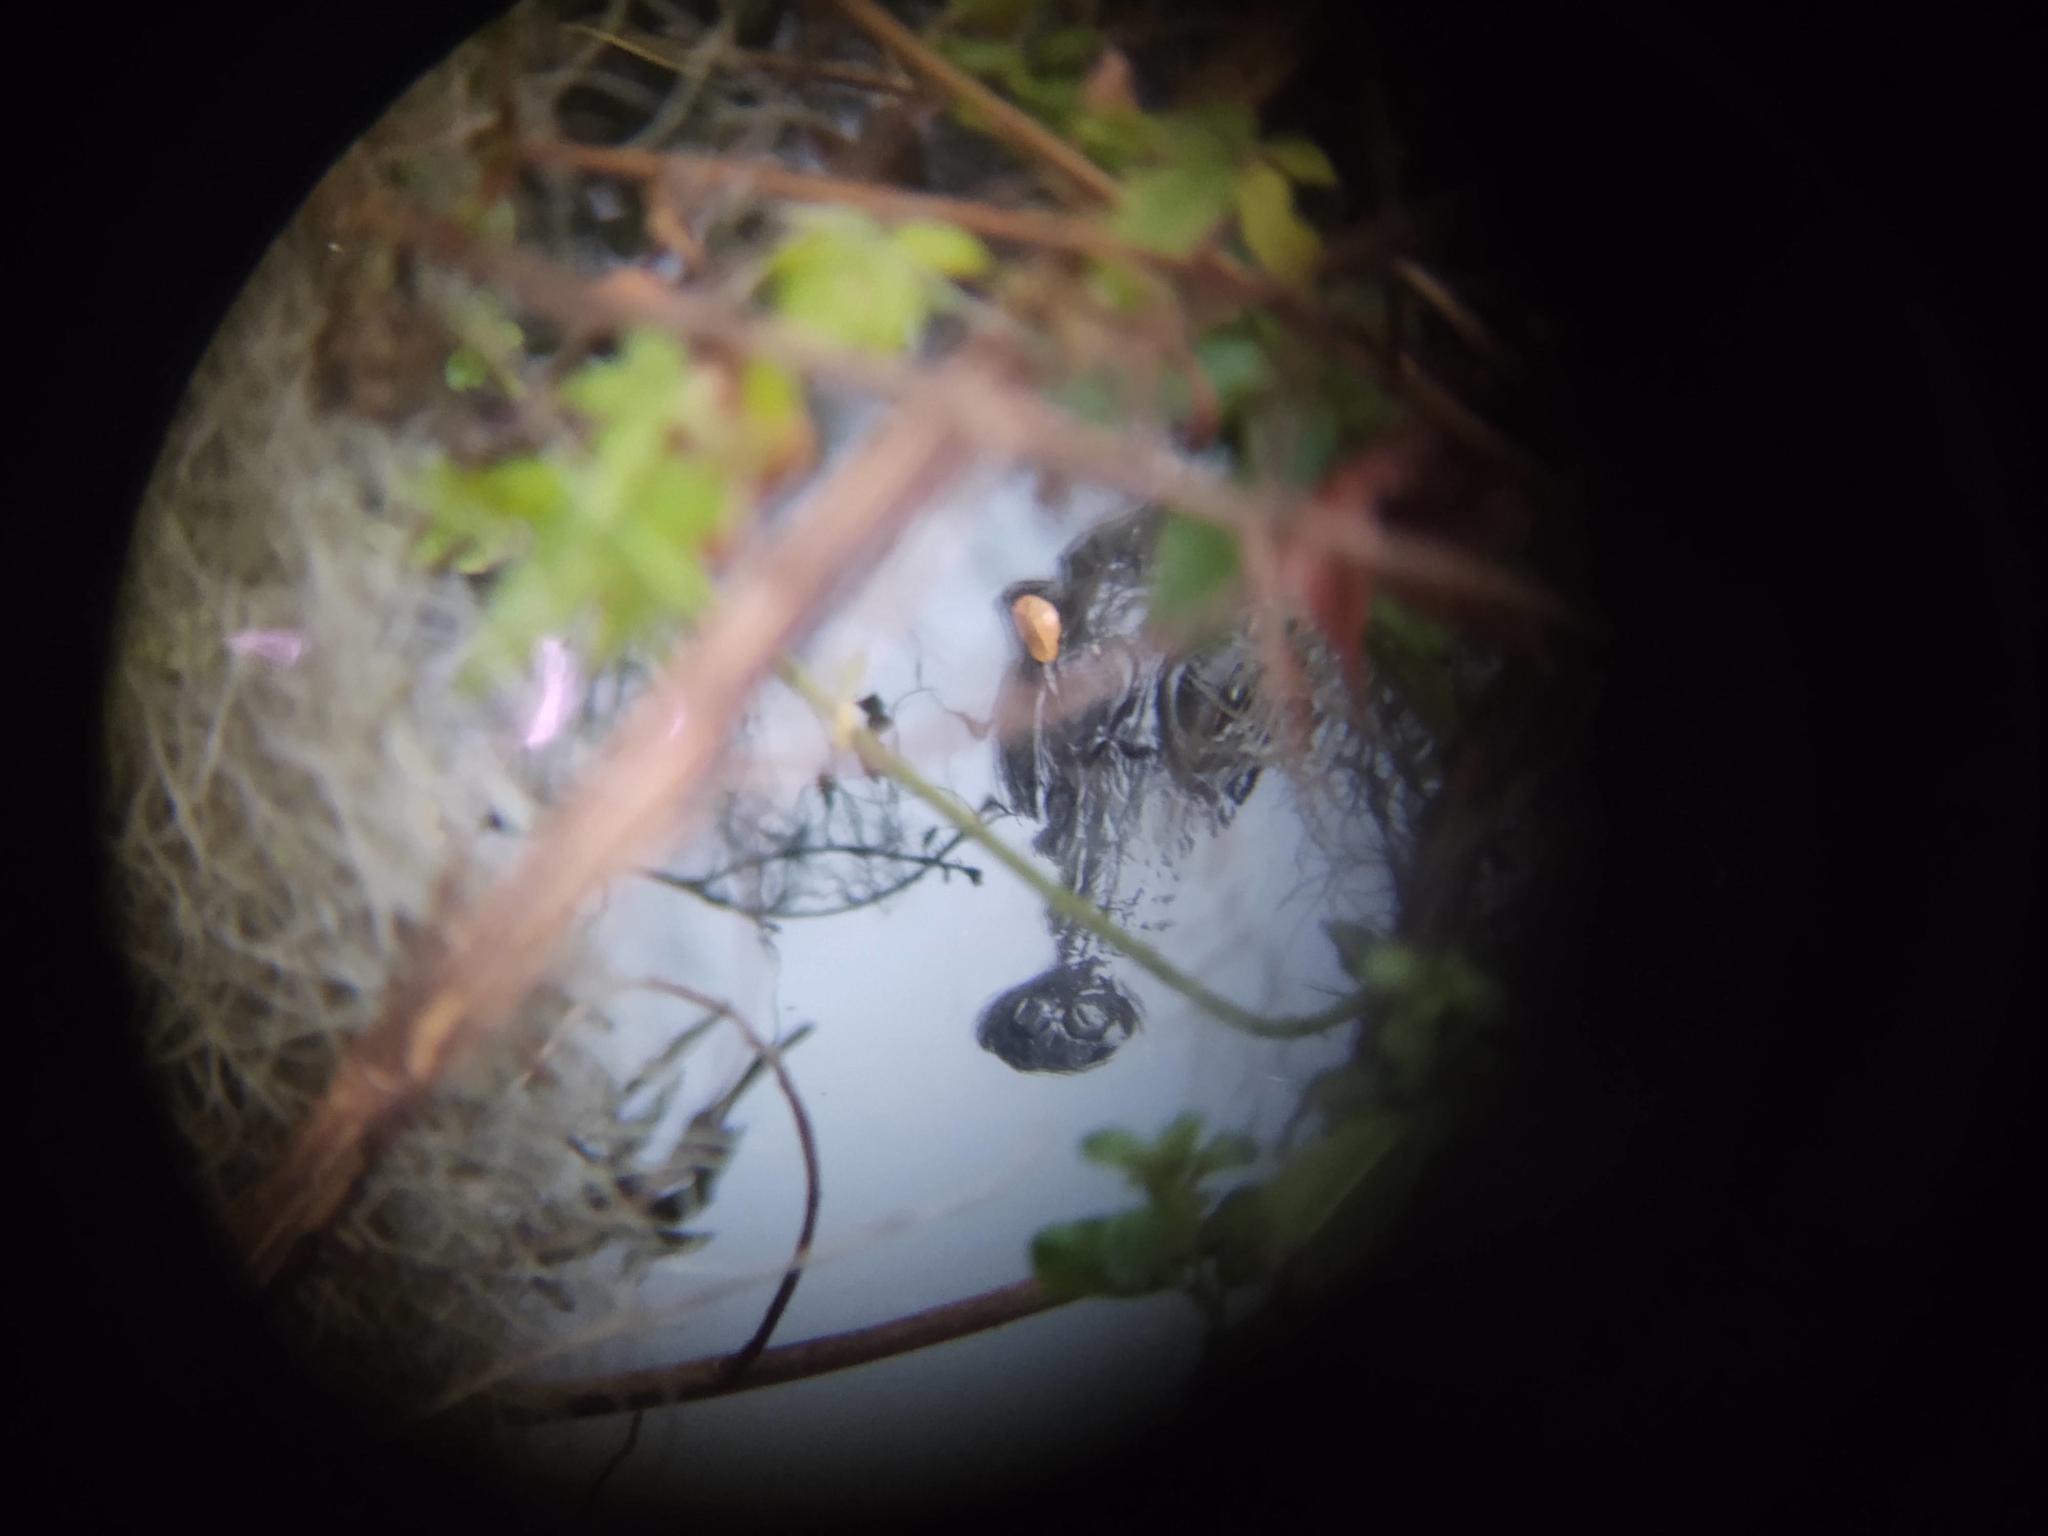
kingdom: Animalia
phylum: Chordata
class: Crocodylia
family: Alligatoridae
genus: Alligator
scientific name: Alligator mississippiensis
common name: American alligator
